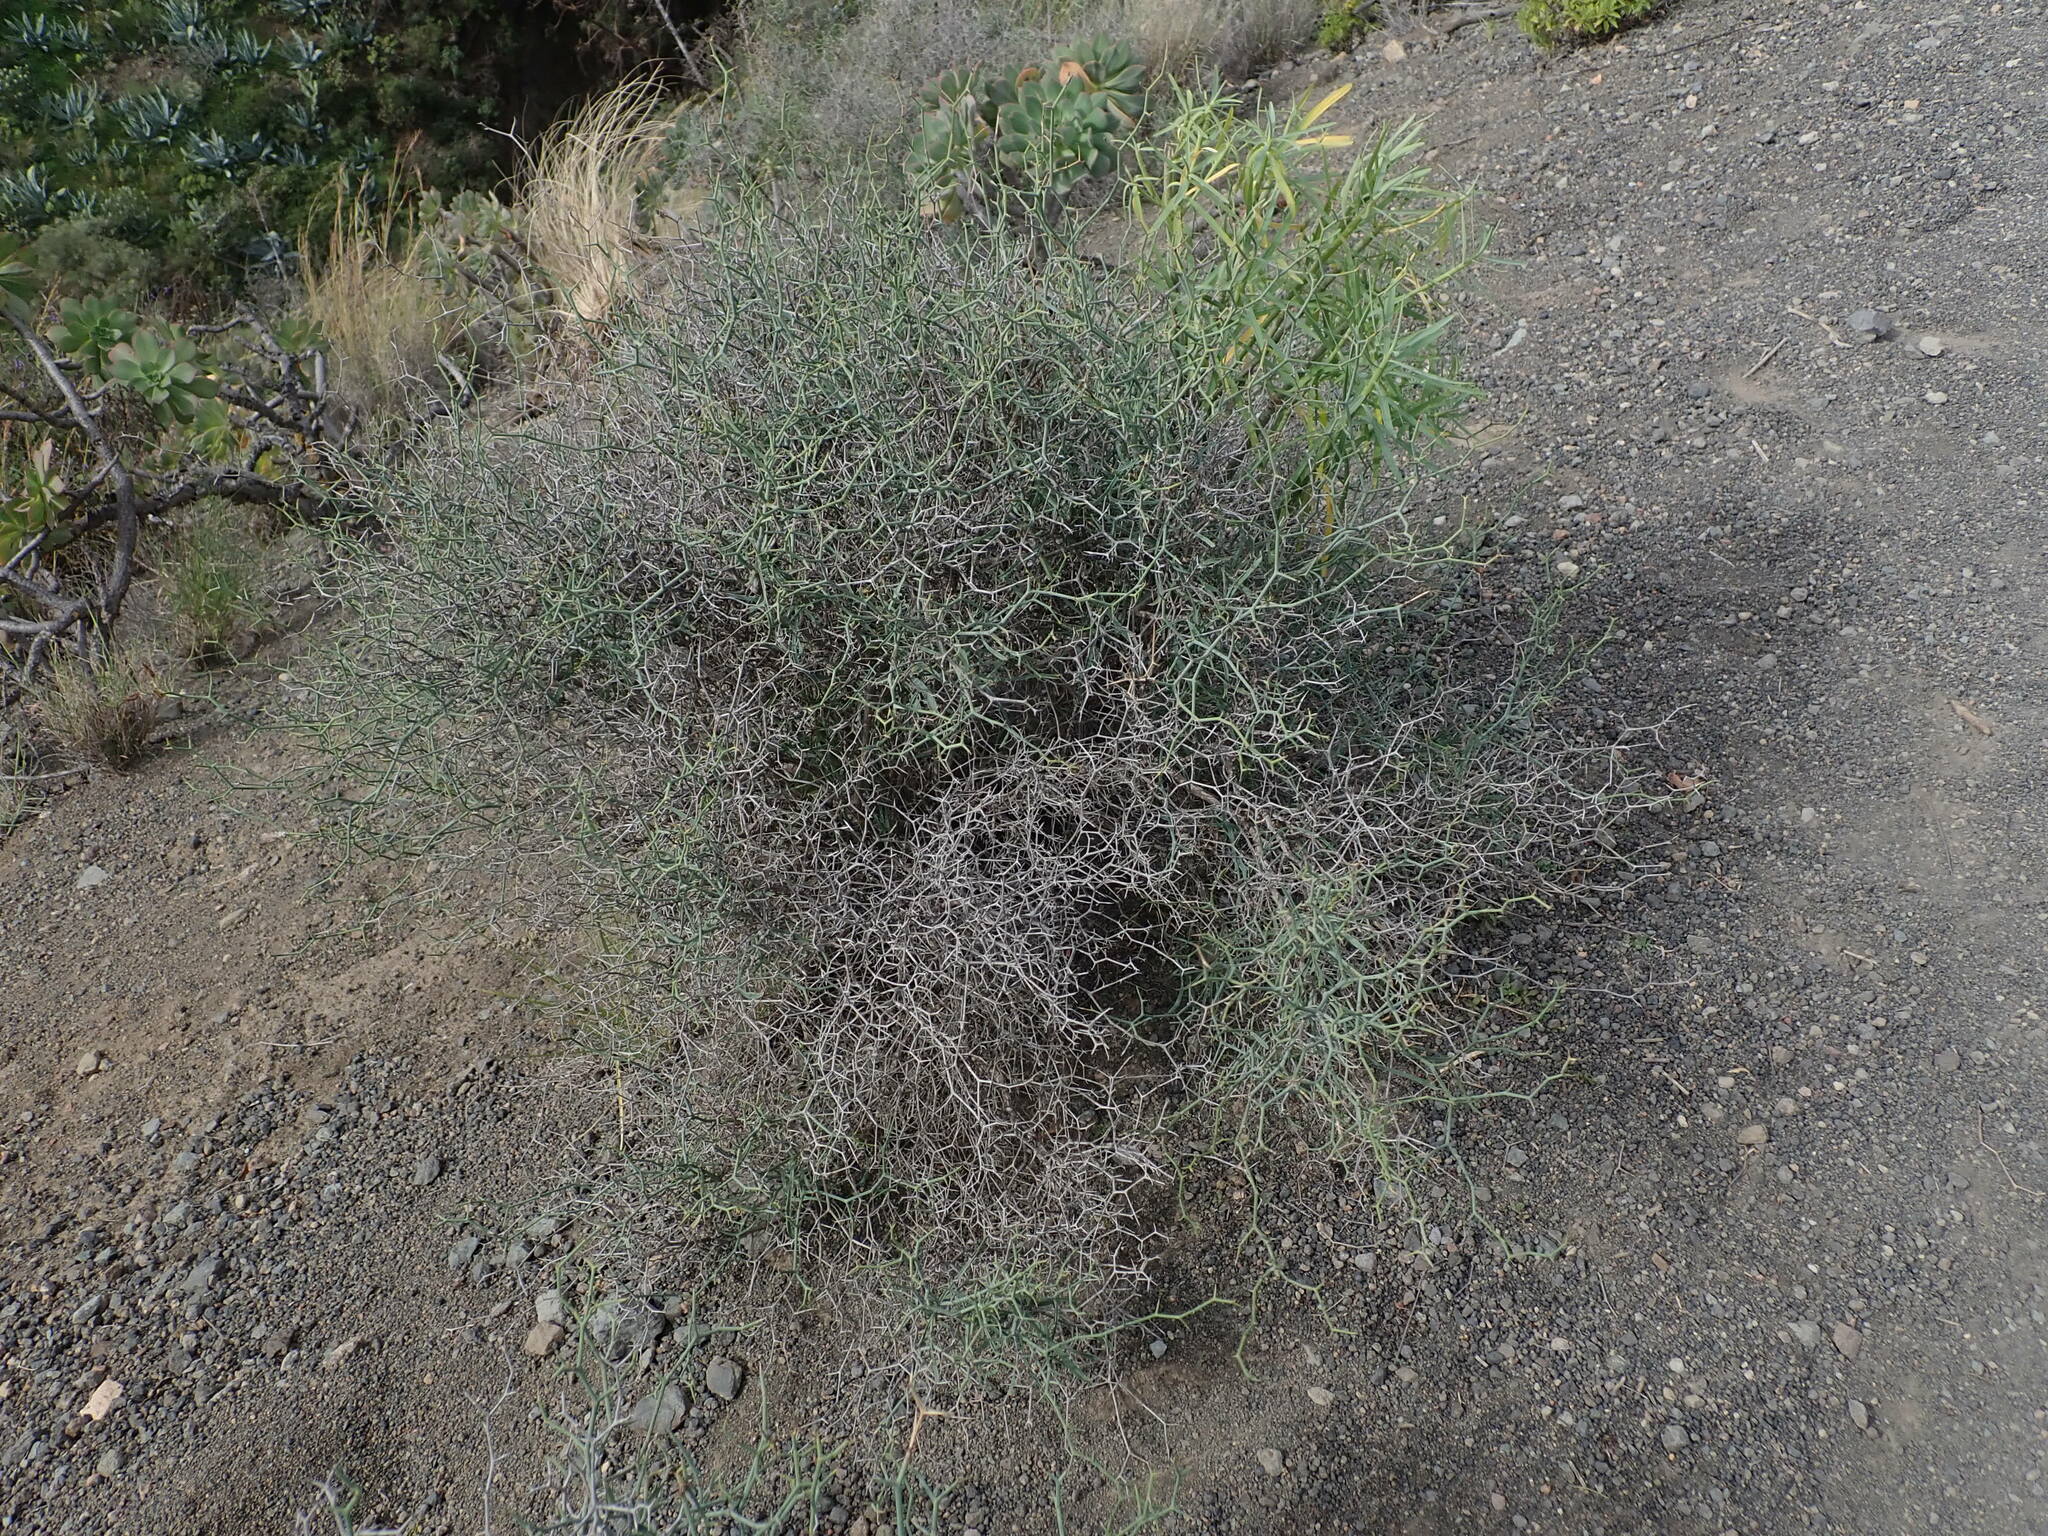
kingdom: Plantae
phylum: Tracheophyta
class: Magnoliopsida
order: Asterales
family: Asteraceae
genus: Launaea
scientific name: Launaea arborescens
